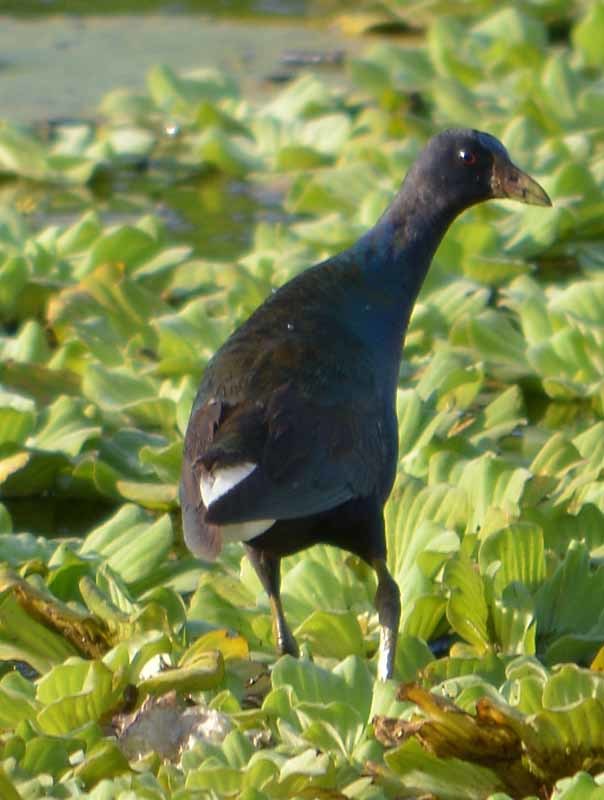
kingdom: Animalia
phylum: Chordata
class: Aves
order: Gruiformes
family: Rallidae
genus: Porphyrio
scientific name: Porphyrio martinica
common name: Purple gallinule
